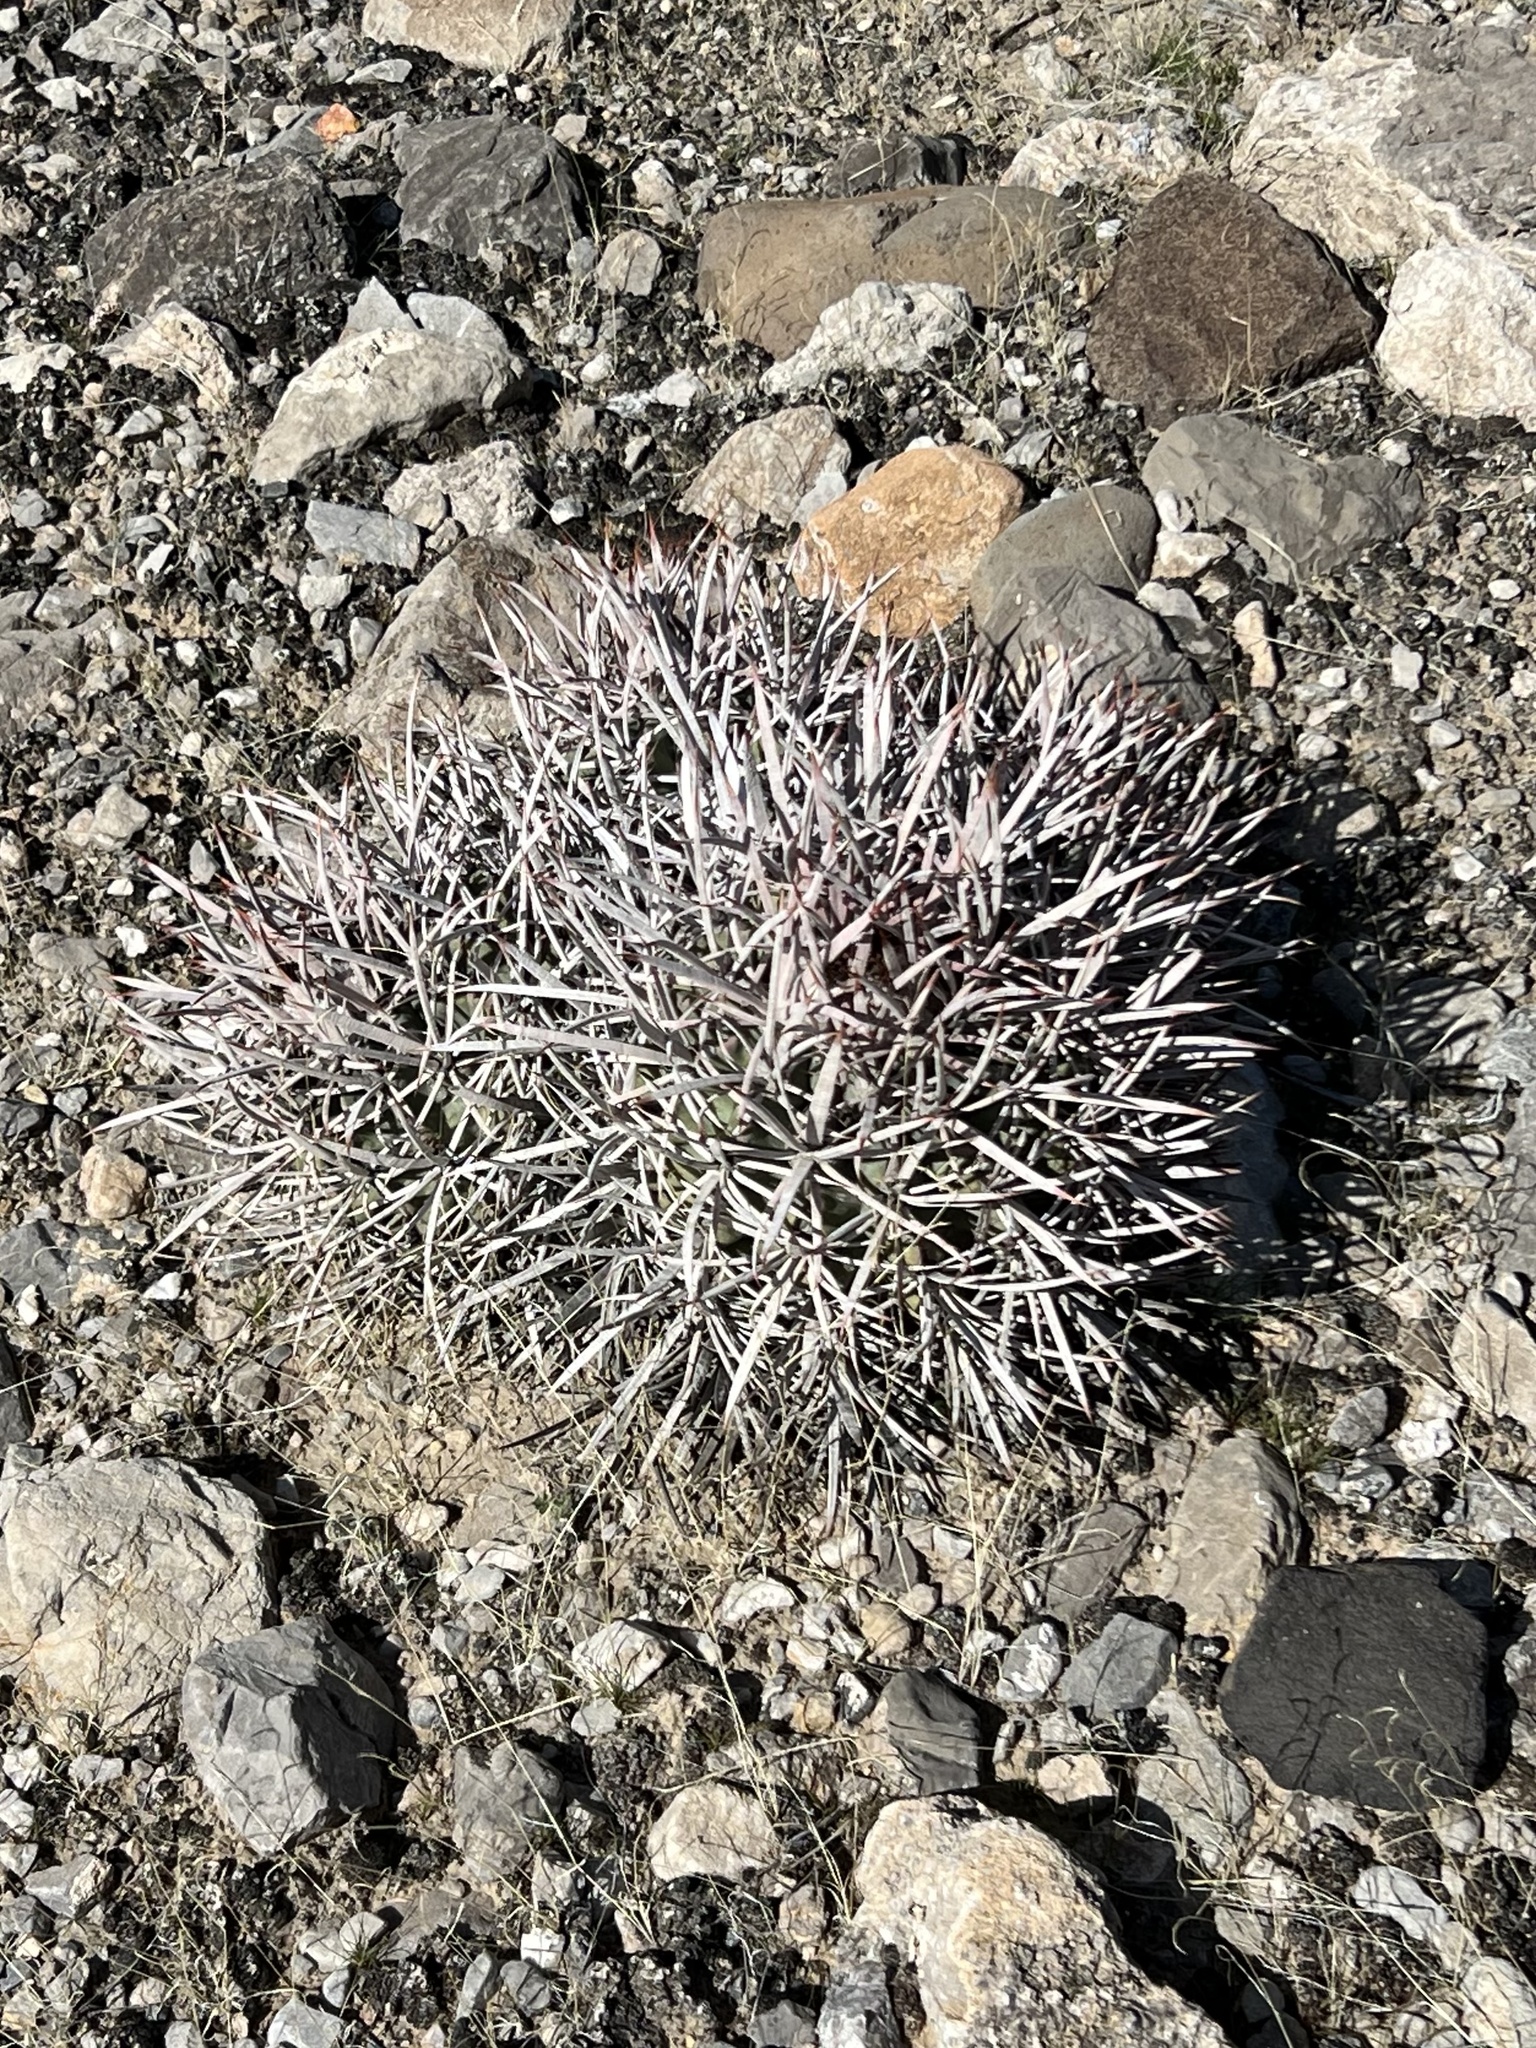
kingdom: Plantae
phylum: Tracheophyta
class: Magnoliopsida
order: Caryophyllales
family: Cactaceae
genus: Echinocactus
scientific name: Echinocactus polycephalus
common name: Cottontop cactus
